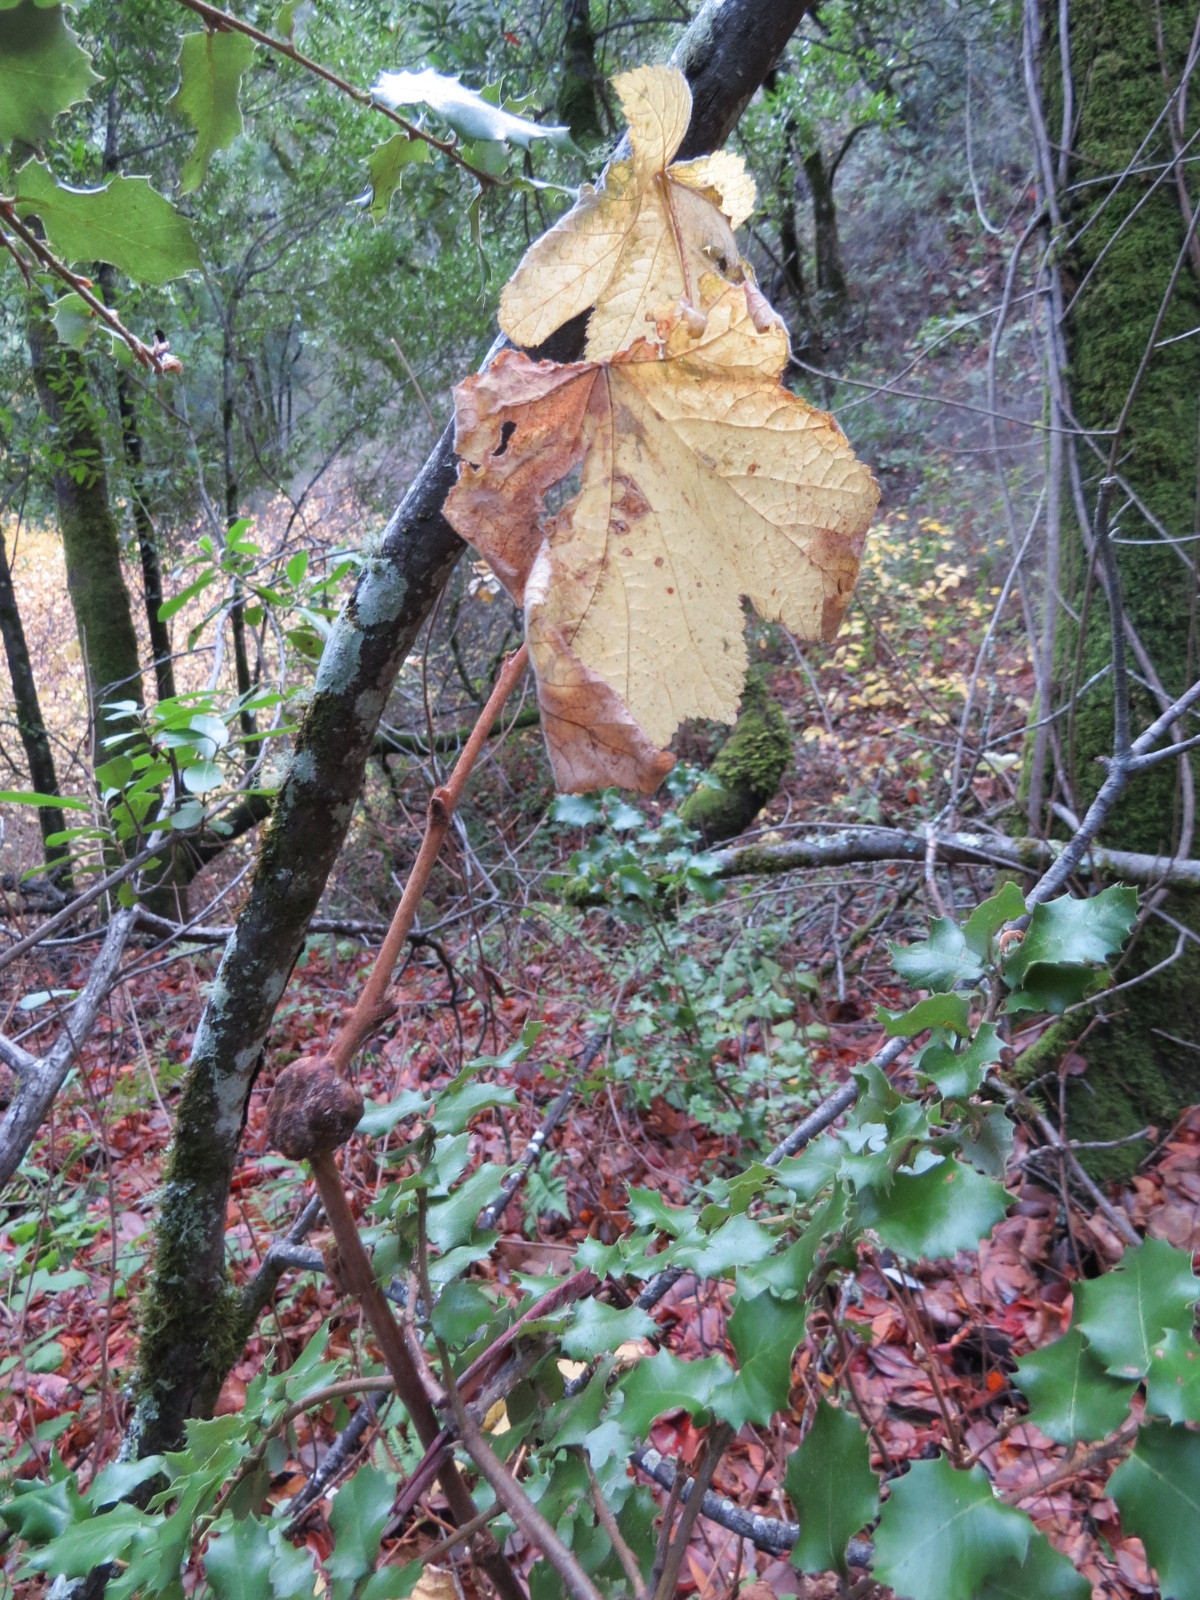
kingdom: Animalia
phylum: Arthropoda
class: Insecta
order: Hymenoptera
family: Cynipidae
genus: Diastrophus
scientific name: Diastrophus
